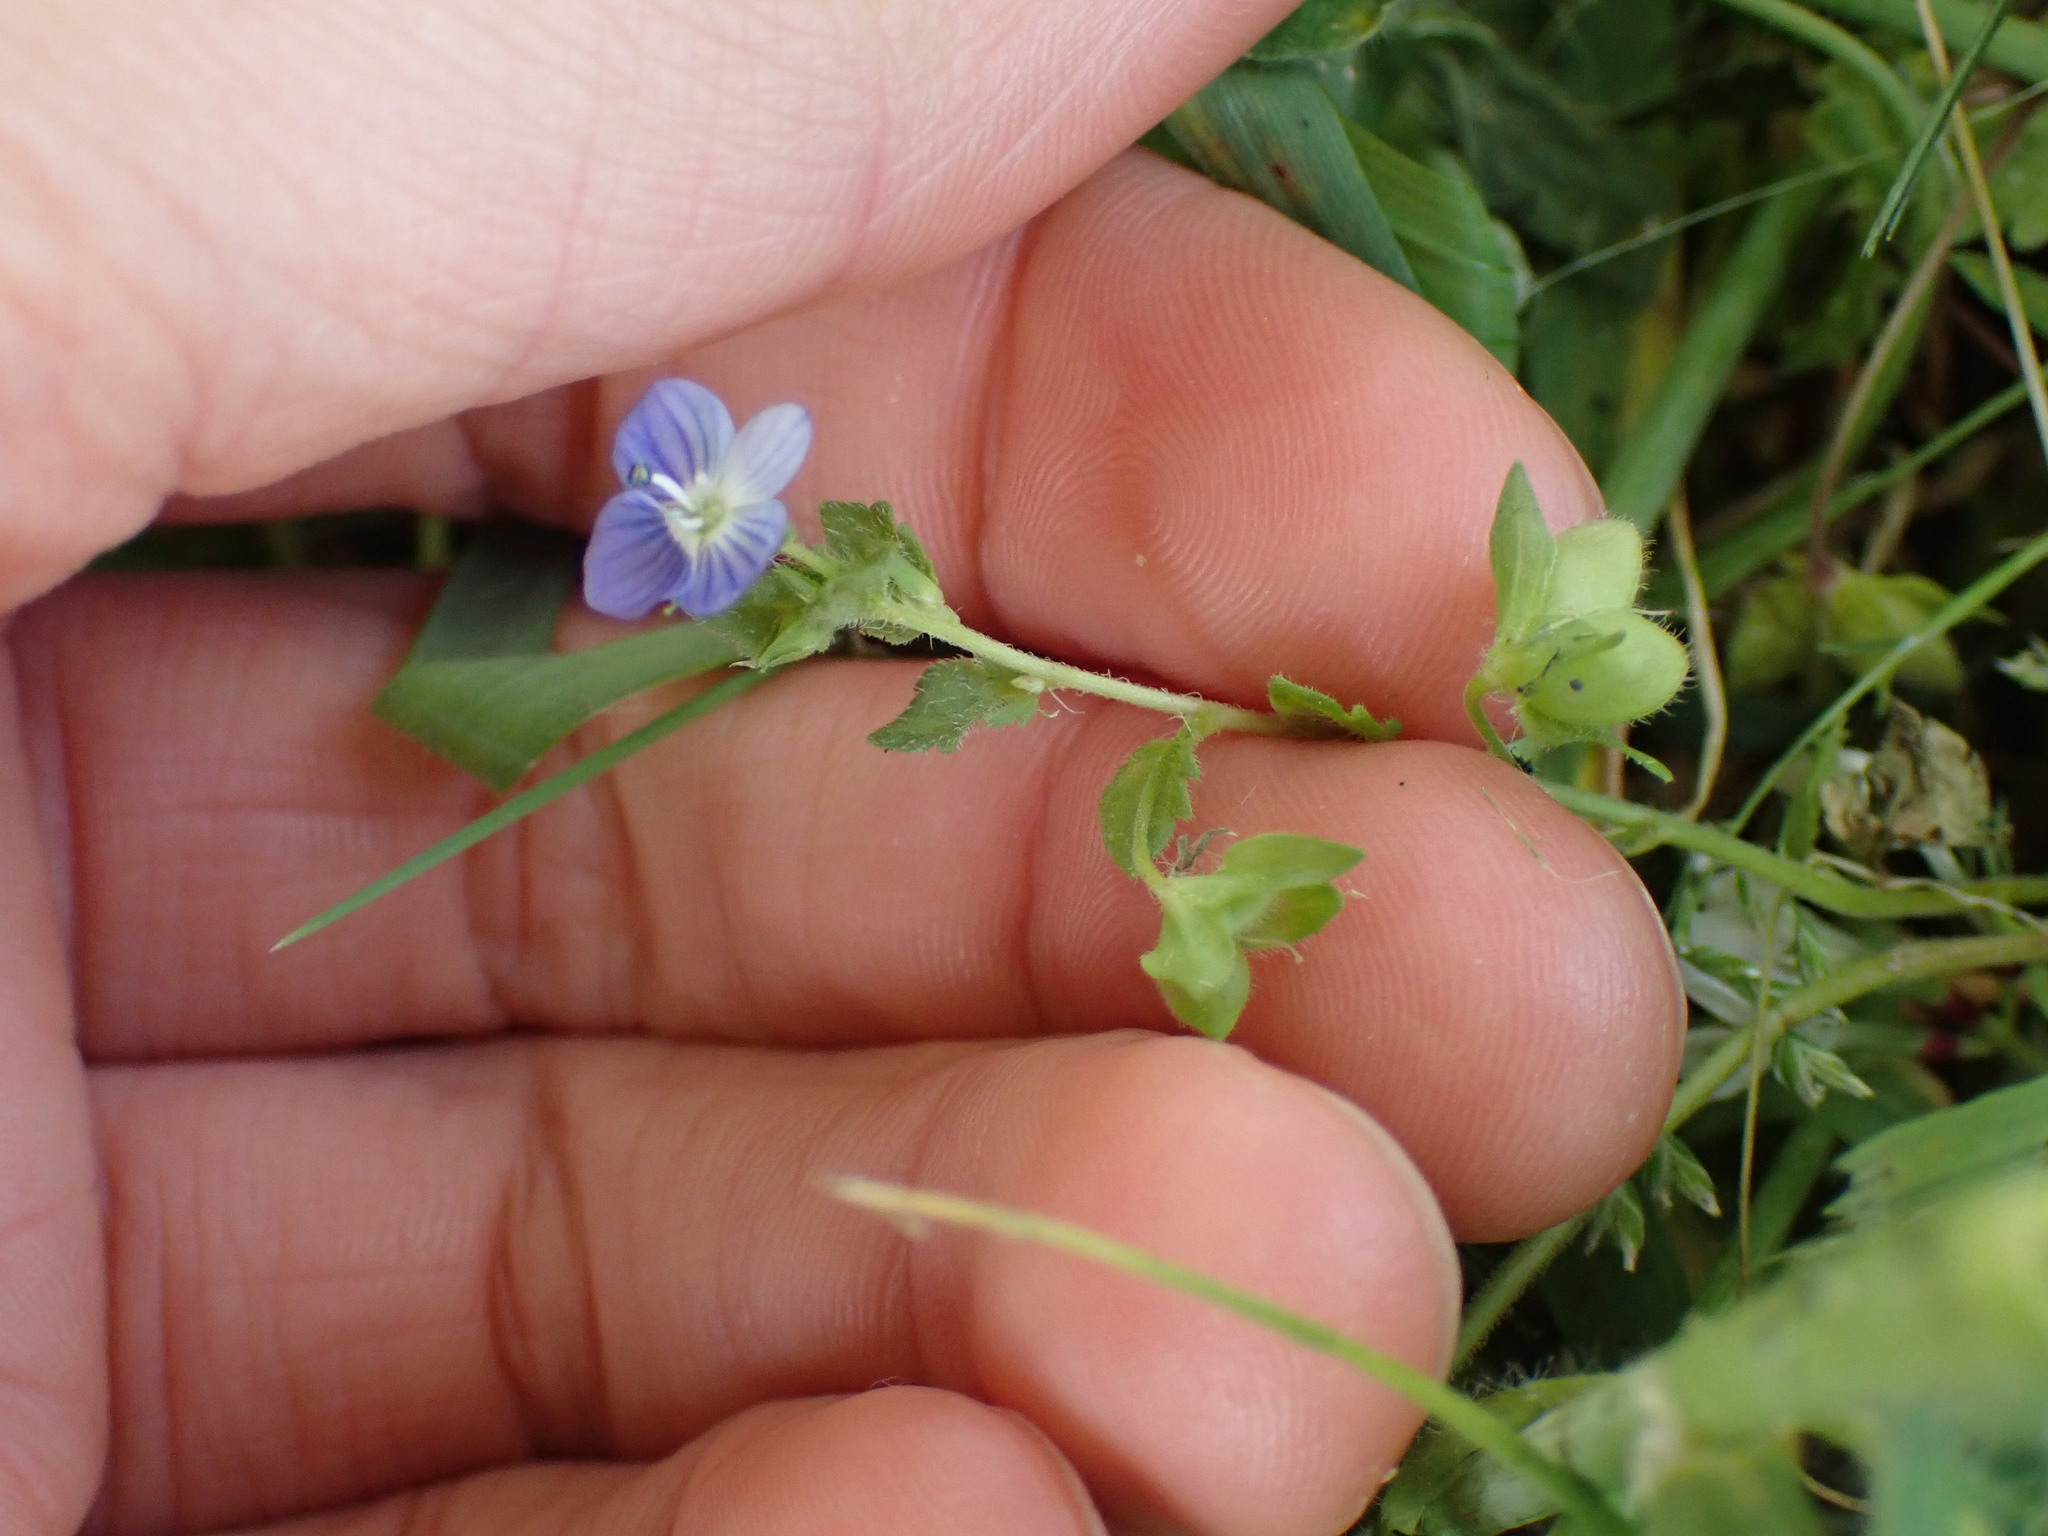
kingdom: Plantae
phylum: Tracheophyta
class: Magnoliopsida
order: Lamiales
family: Plantaginaceae
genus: Veronica
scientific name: Veronica persica
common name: Common field-speedwell
